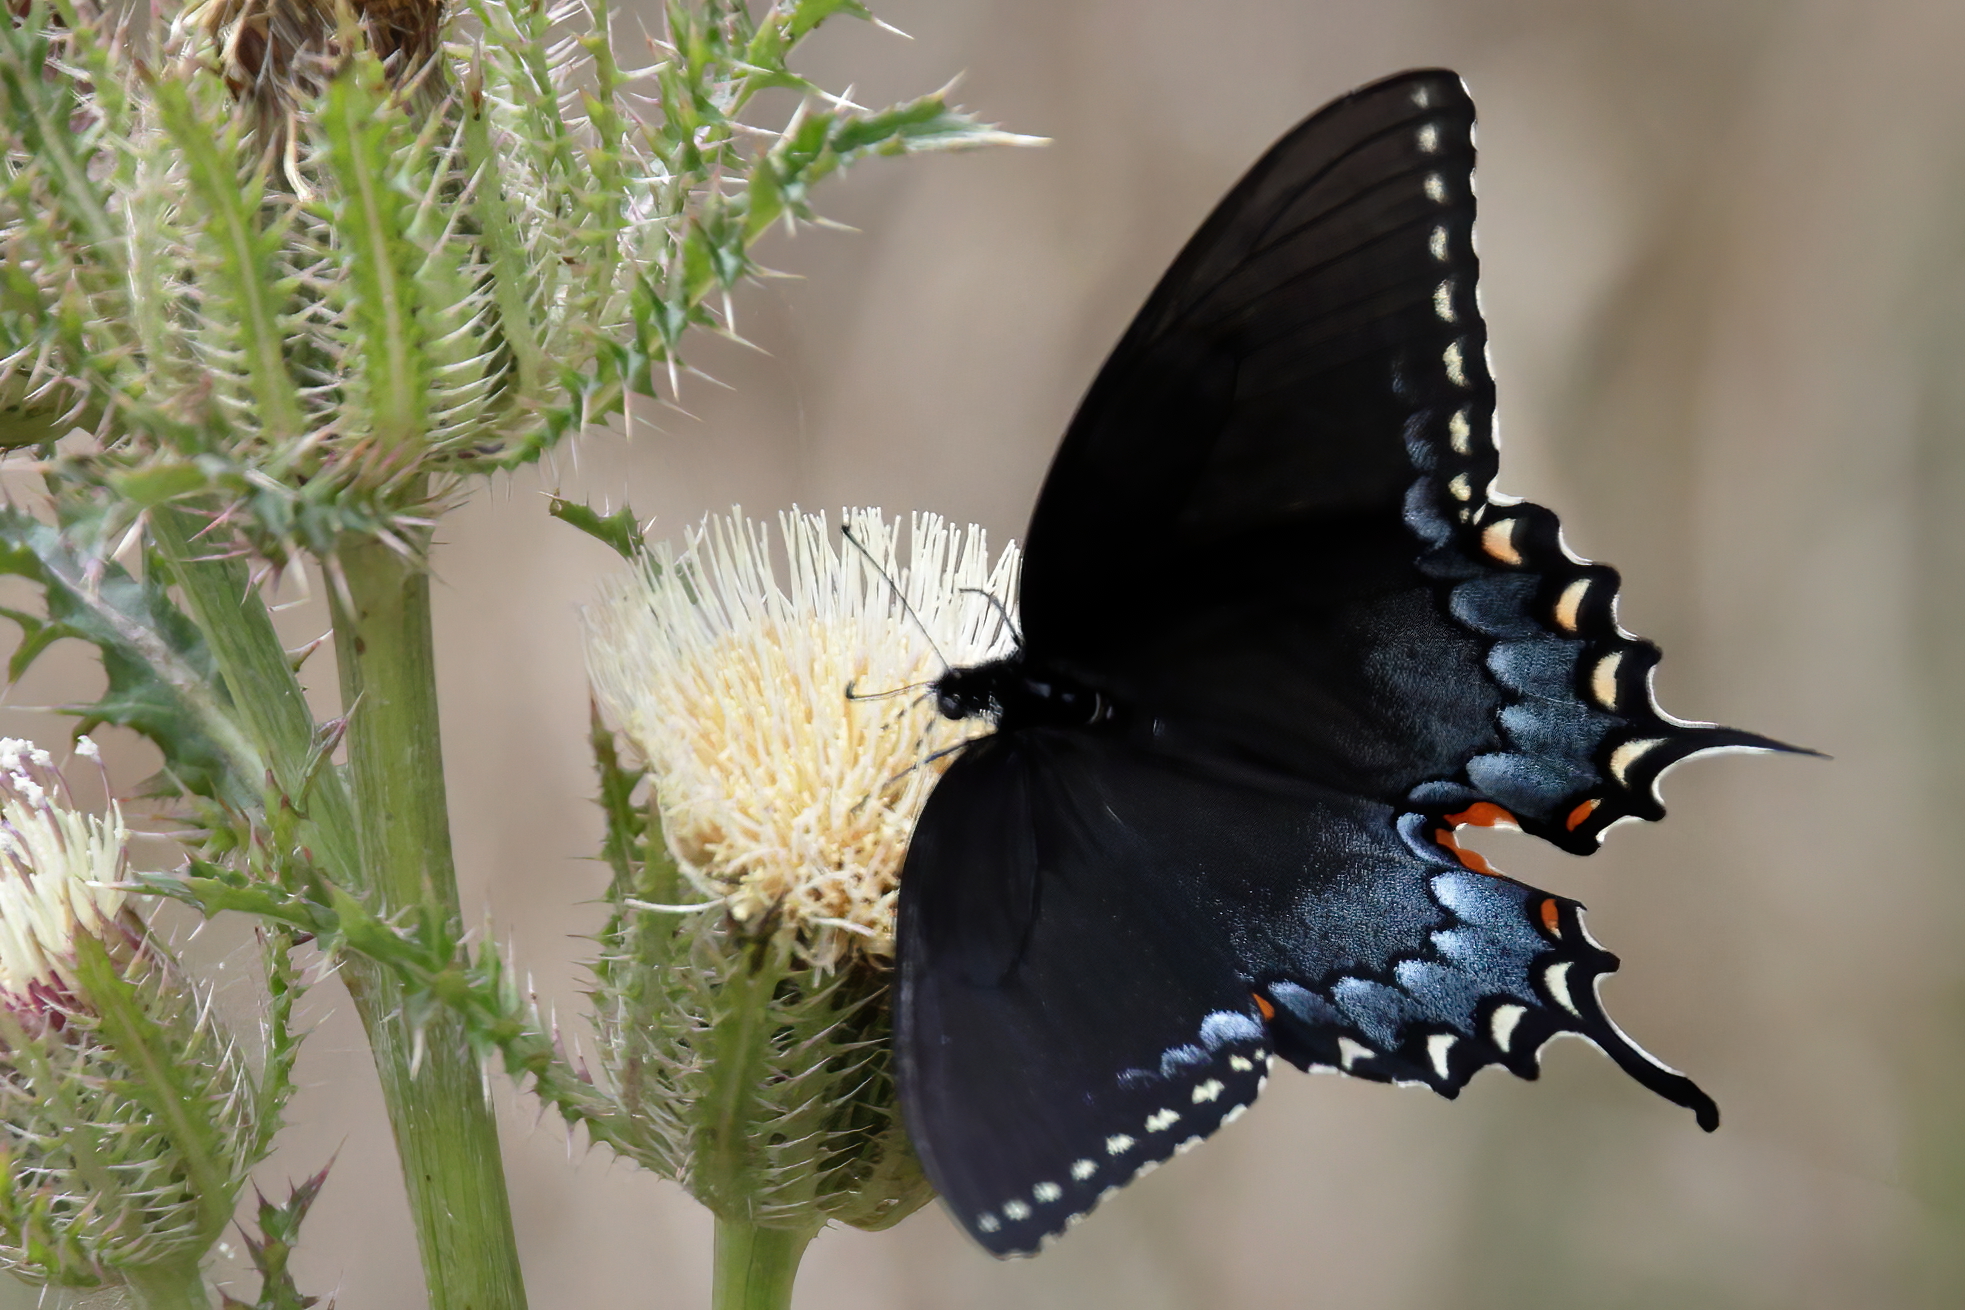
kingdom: Animalia
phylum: Arthropoda
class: Insecta
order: Lepidoptera
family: Papilionidae
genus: Papilio
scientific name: Papilio glaucus
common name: Tiger swallowtail
